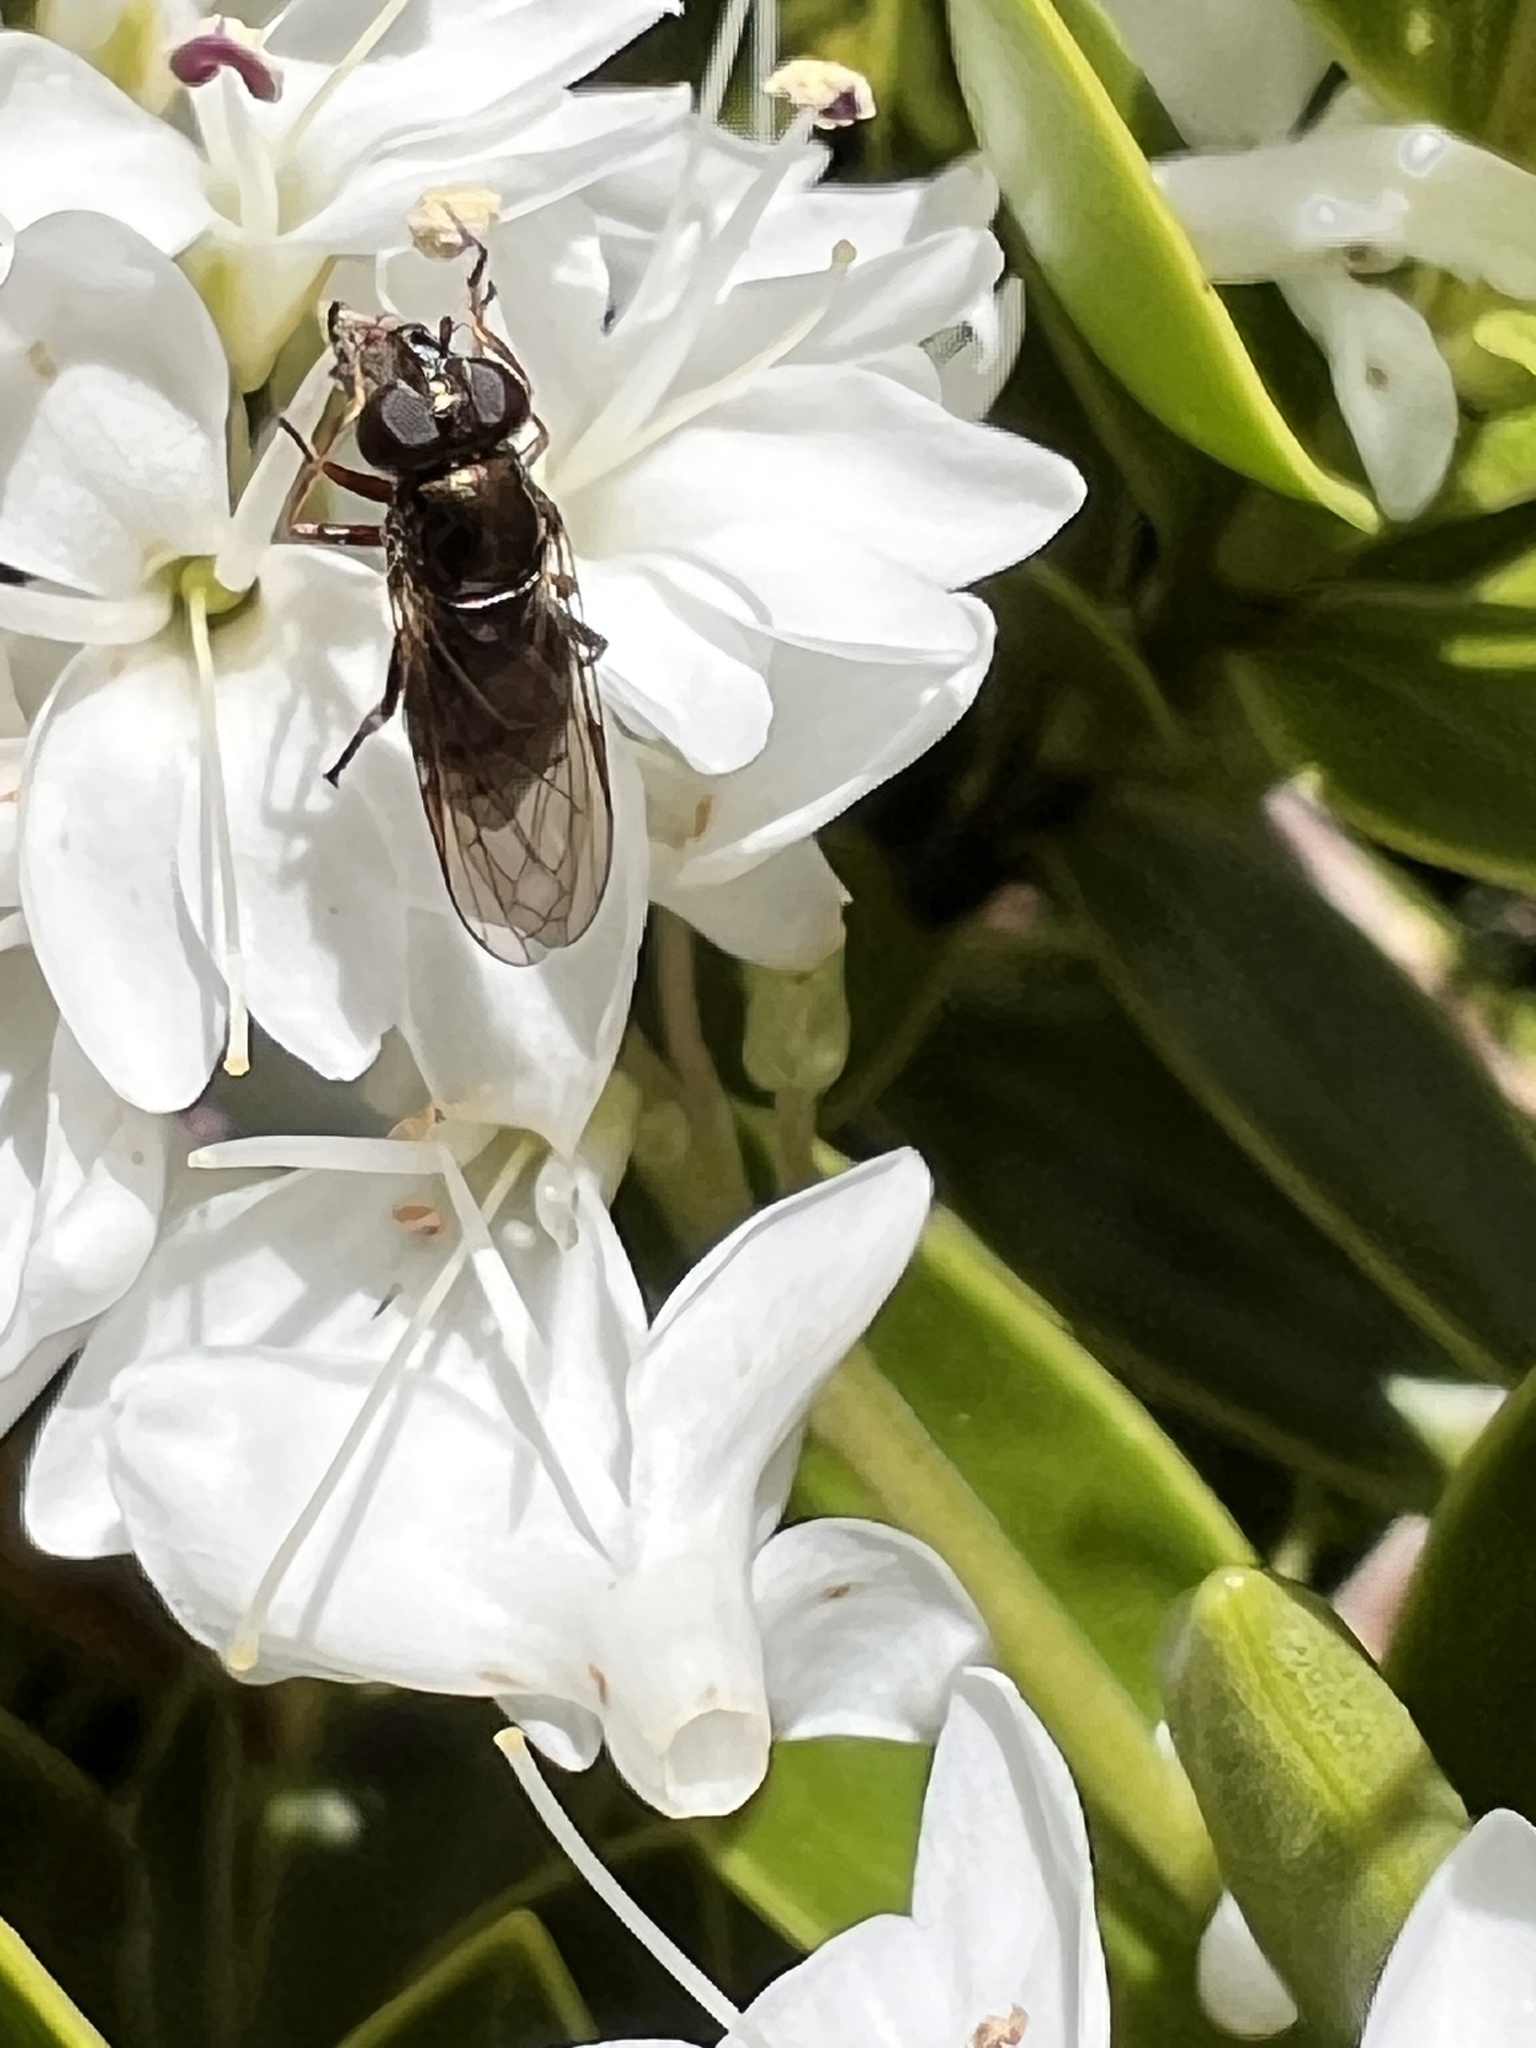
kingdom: Animalia
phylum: Arthropoda
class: Insecta
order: Diptera
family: Syrphidae
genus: Psilota
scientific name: Psilota decessum
